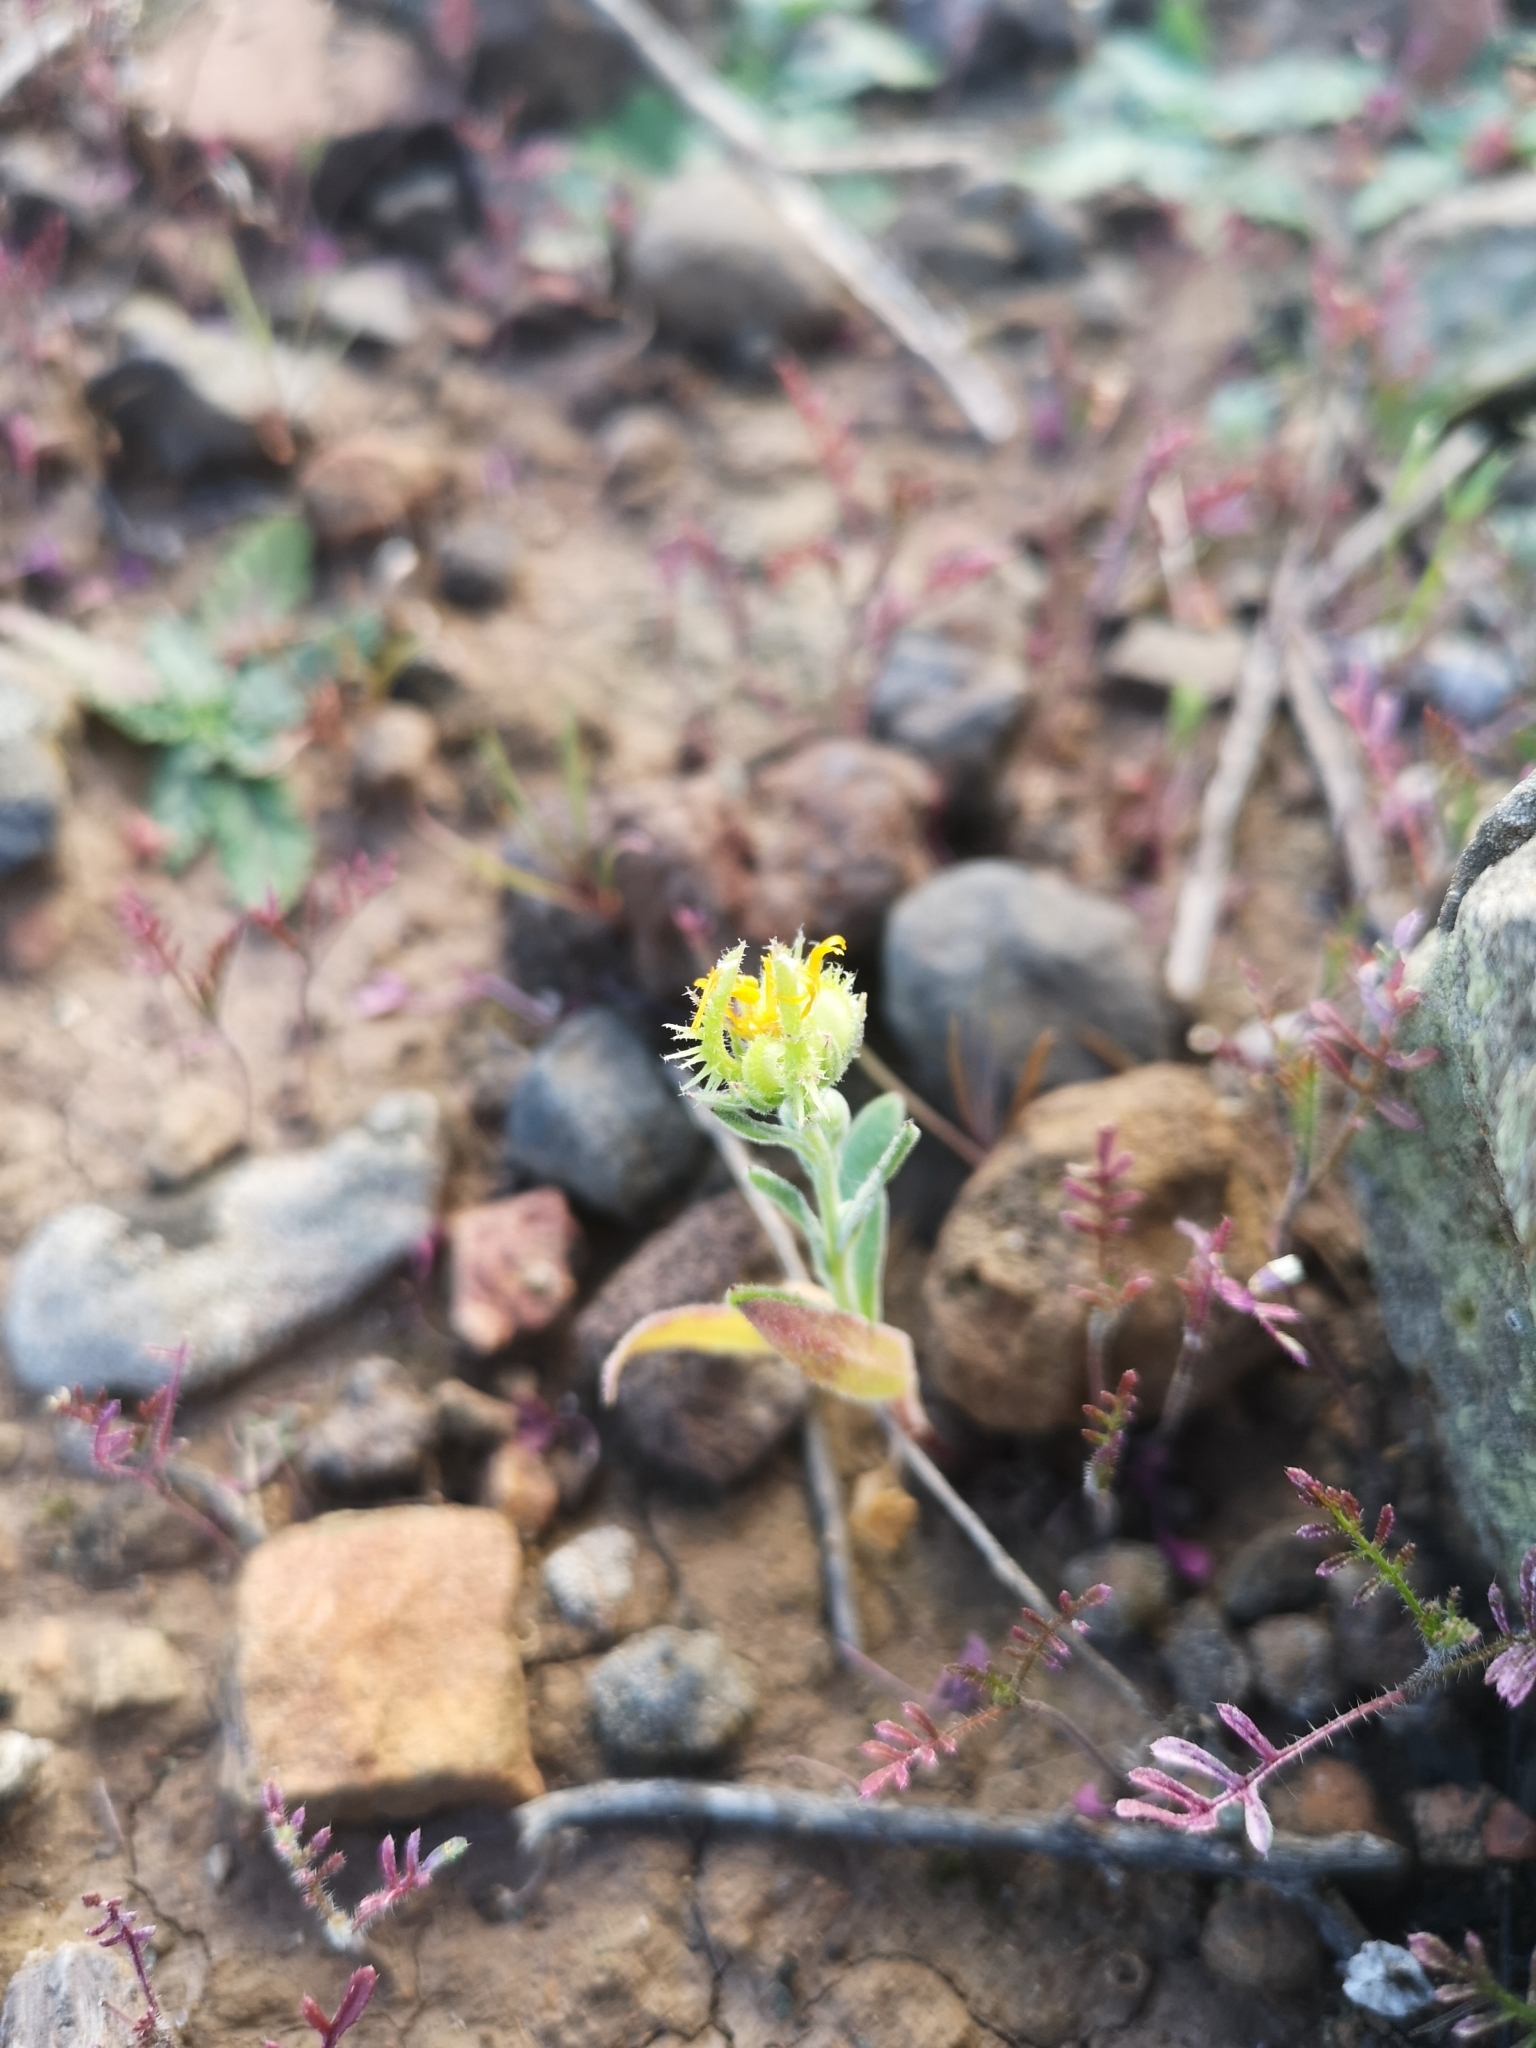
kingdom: Plantae
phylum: Tracheophyta
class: Magnoliopsida
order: Asterales
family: Asteraceae
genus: Calendula
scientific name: Calendula arvensis
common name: Field marigold
